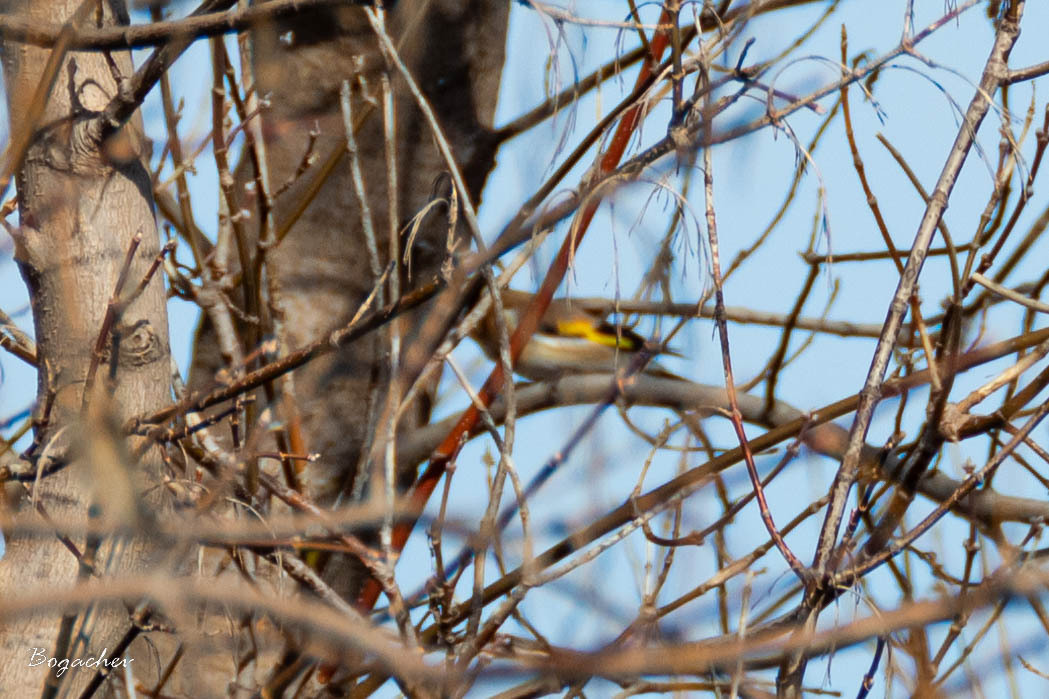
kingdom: Animalia
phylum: Chordata
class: Aves
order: Passeriformes
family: Fringillidae
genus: Carduelis
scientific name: Carduelis carduelis
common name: European goldfinch
